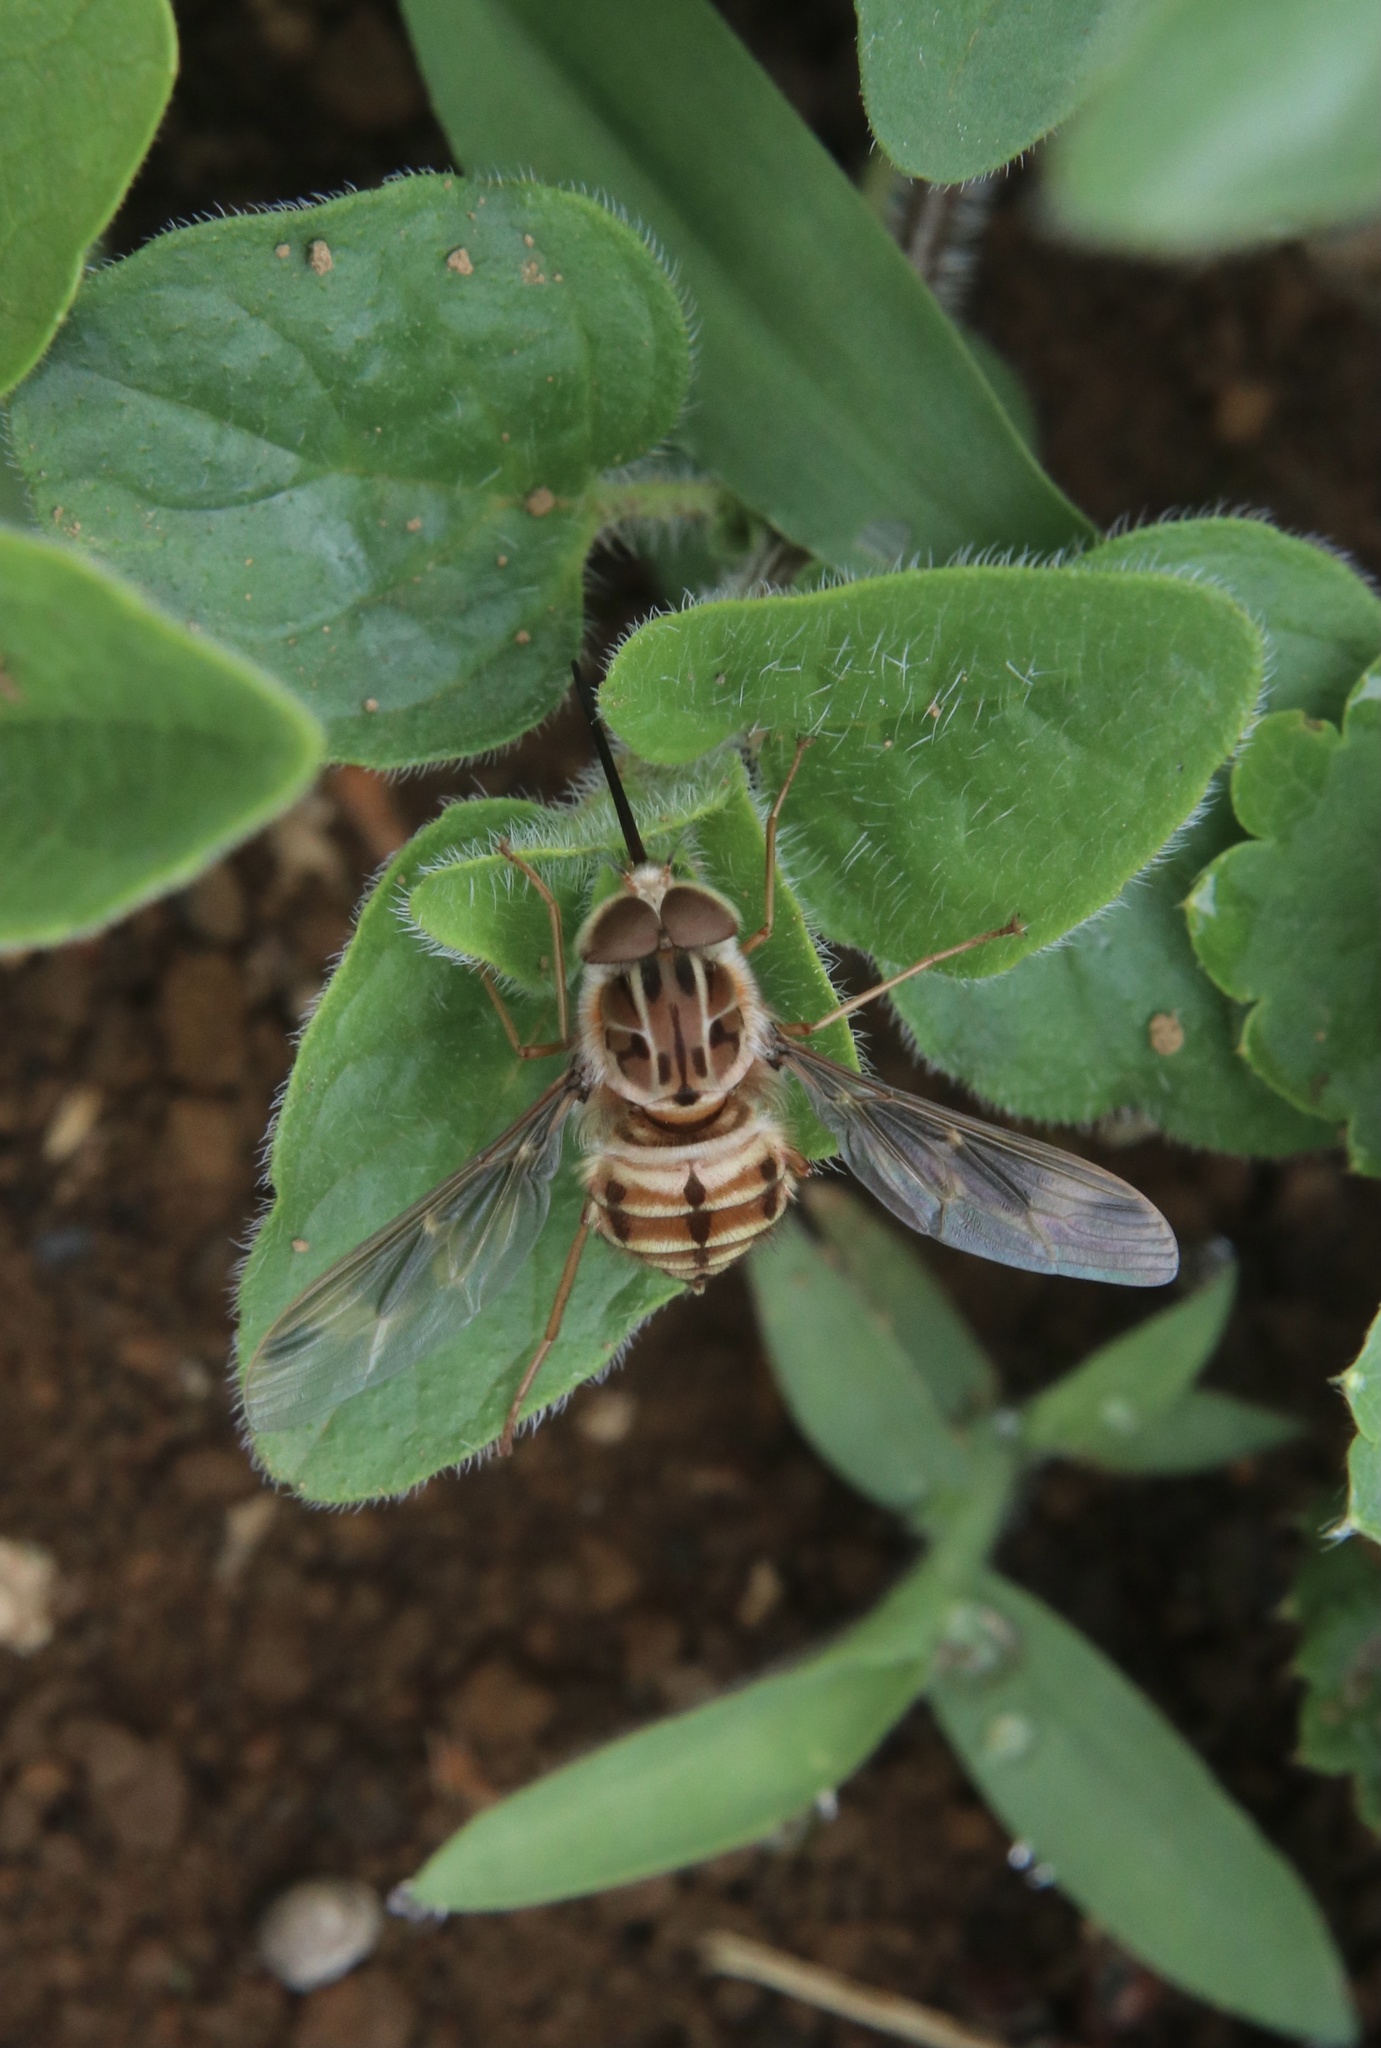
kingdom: Animalia
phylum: Arthropoda
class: Insecta
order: Diptera
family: Nemestrinidae
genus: Trichophthalma
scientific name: Trichophthalma nubipennis
